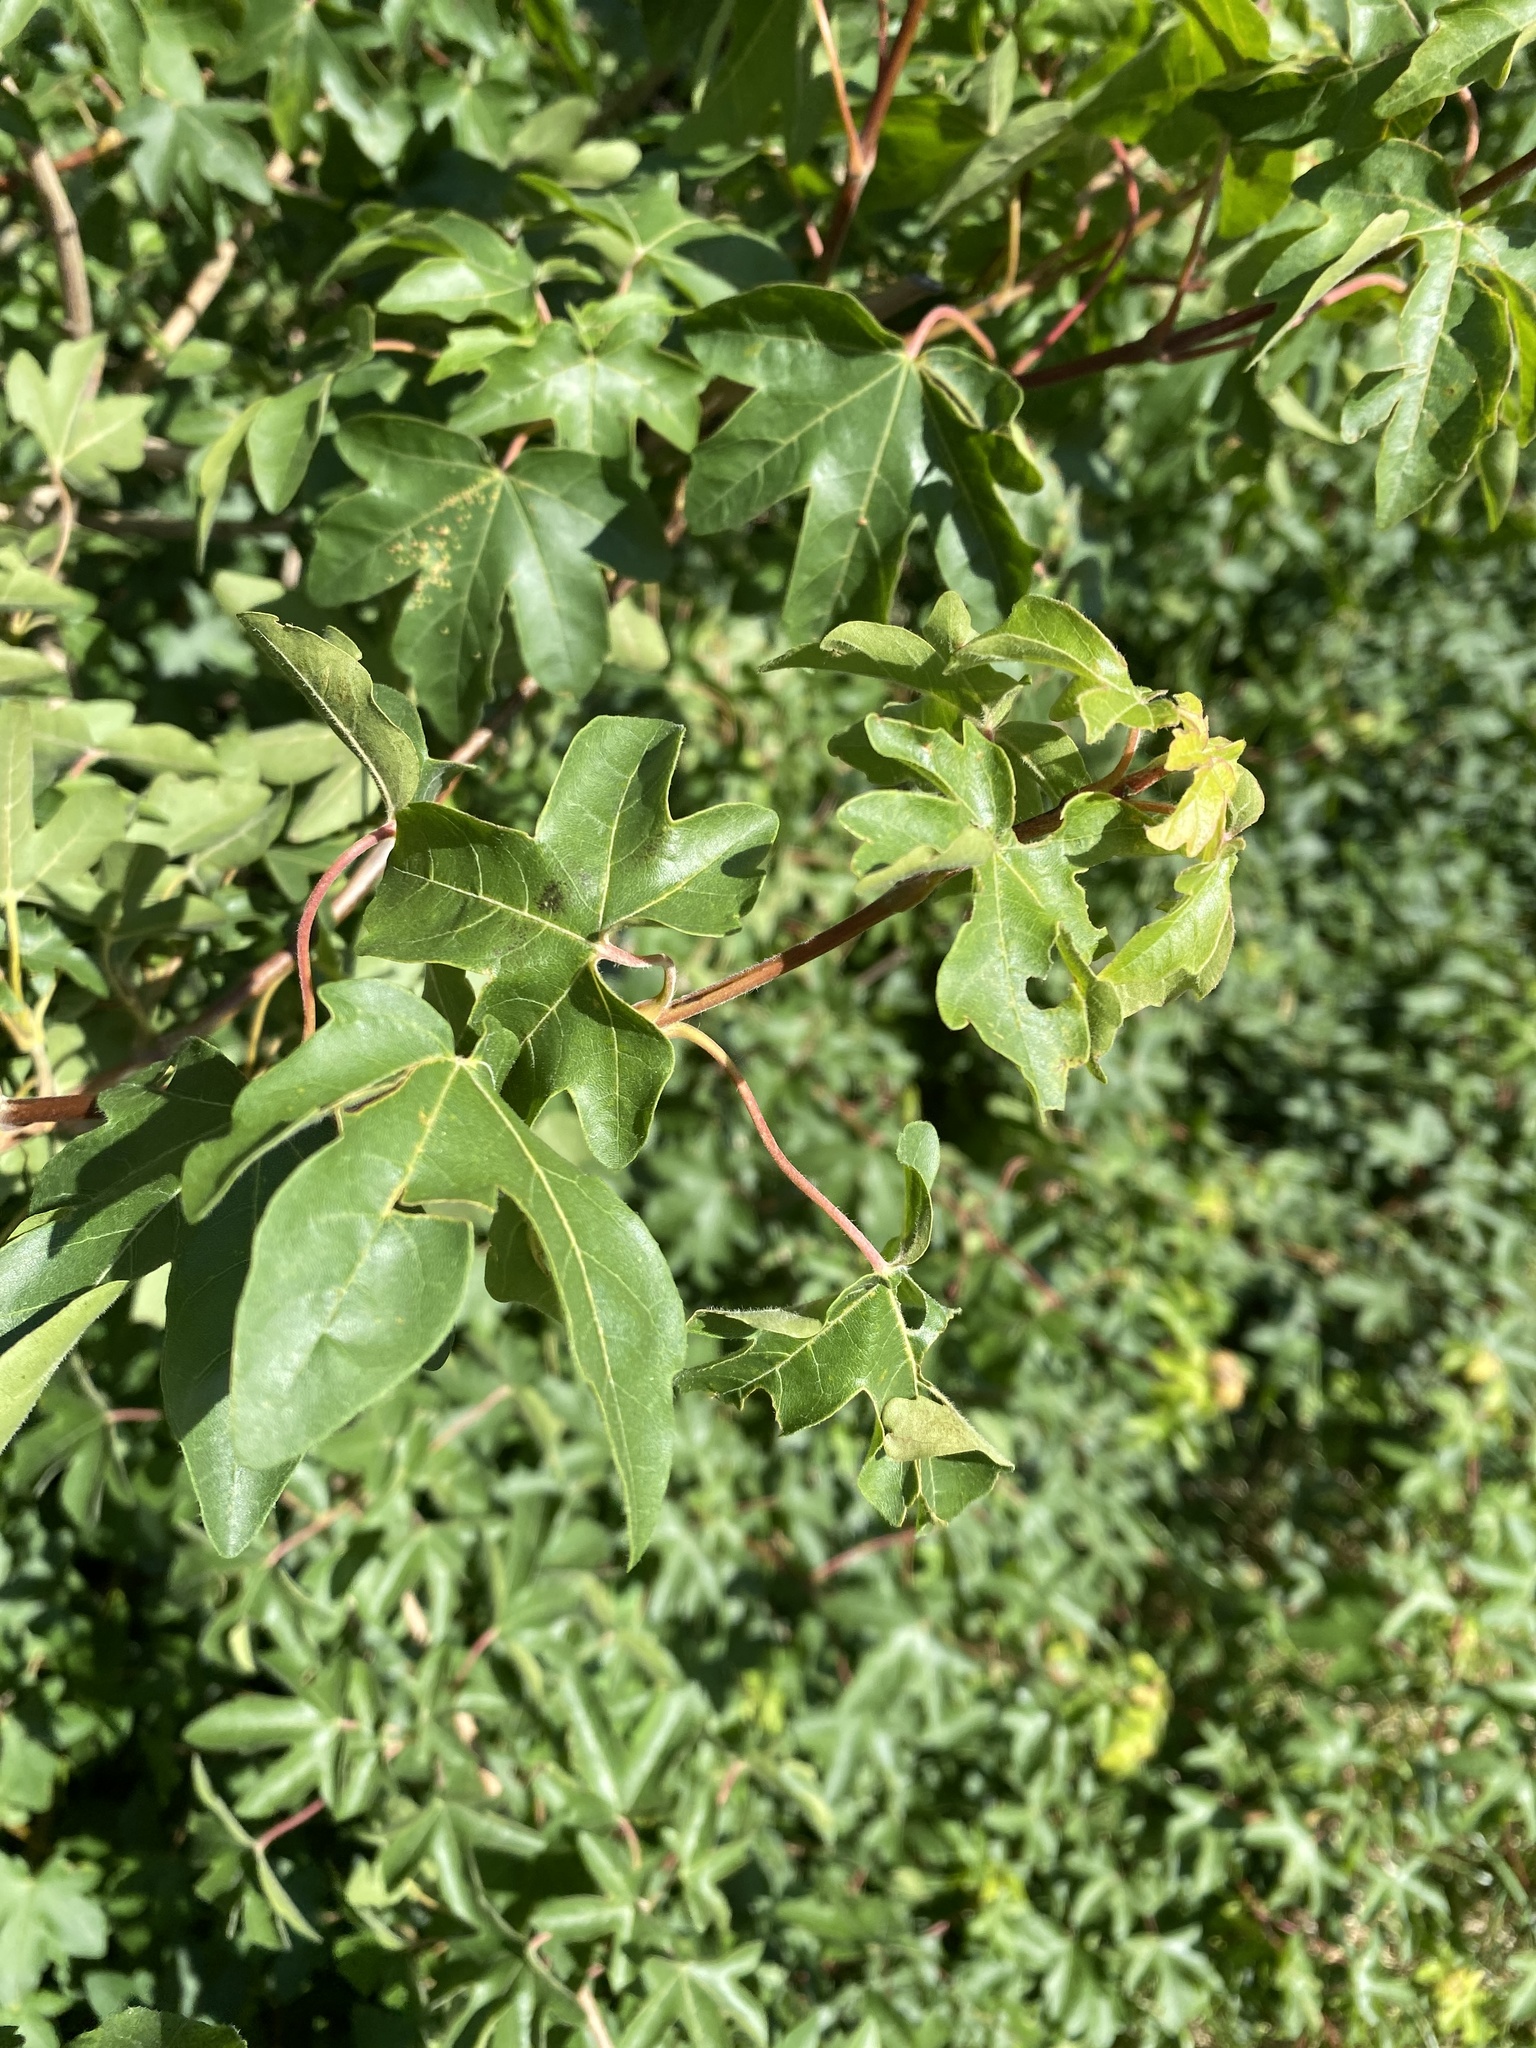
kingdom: Plantae
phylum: Tracheophyta
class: Magnoliopsida
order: Sapindales
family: Sapindaceae
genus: Acer
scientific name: Acer campestre
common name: Field maple
